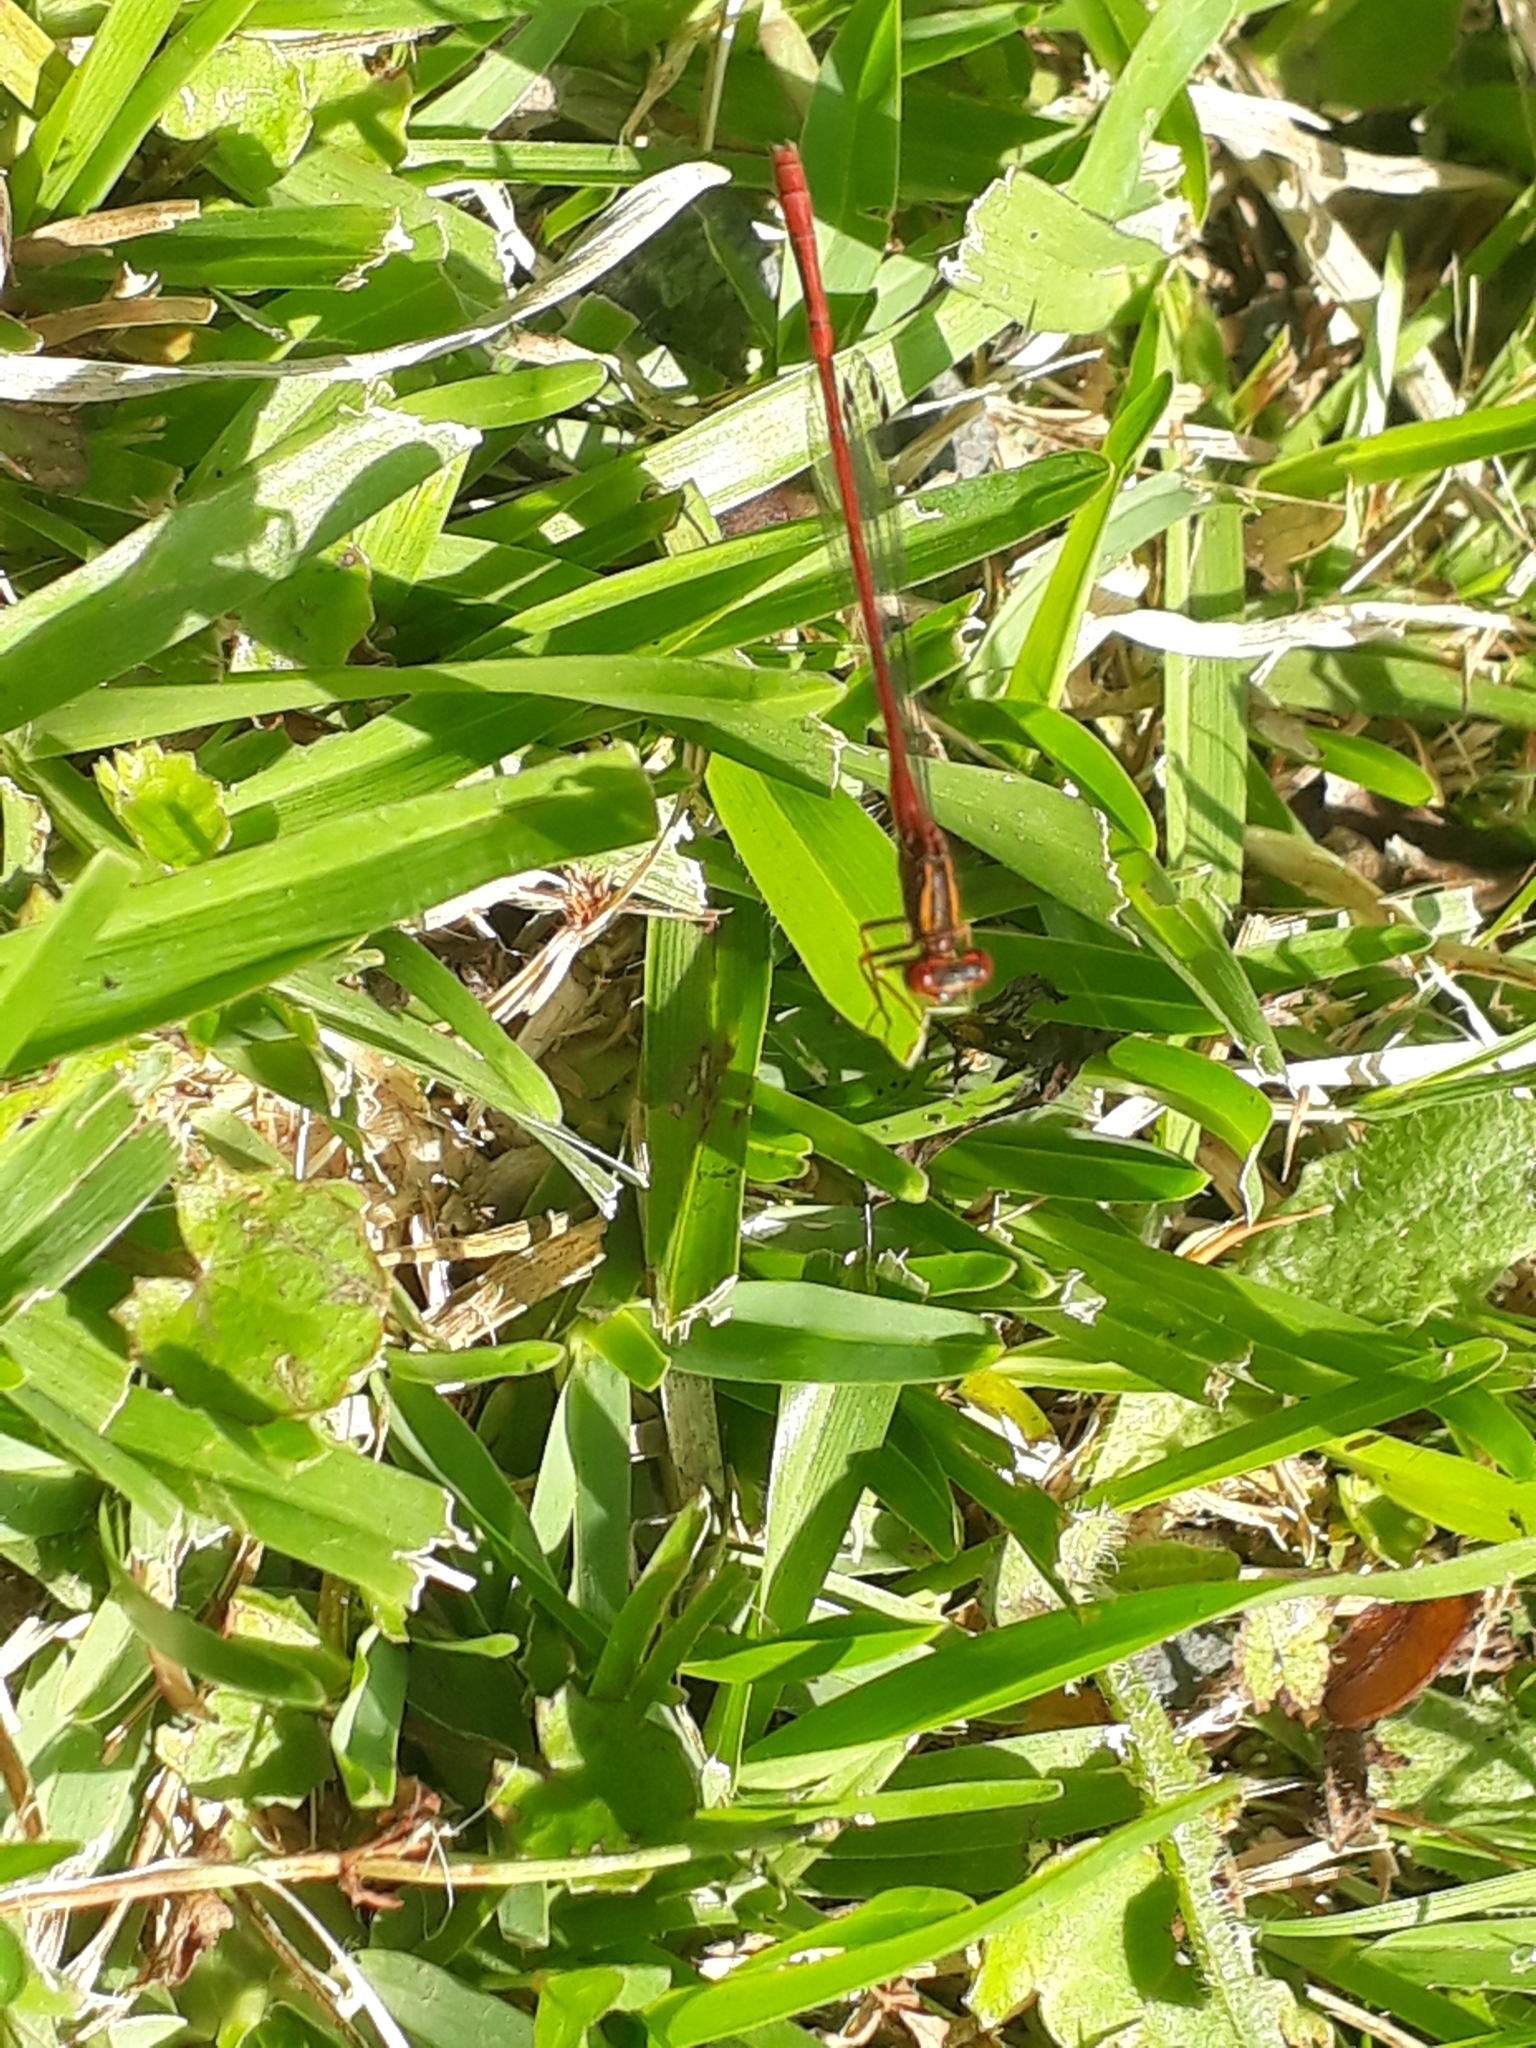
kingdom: Animalia
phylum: Arthropoda
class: Insecta
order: Odonata
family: Coenagrionidae
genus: Xanthocnemis
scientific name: Xanthocnemis zealandica
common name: Common redcoat damselfly
